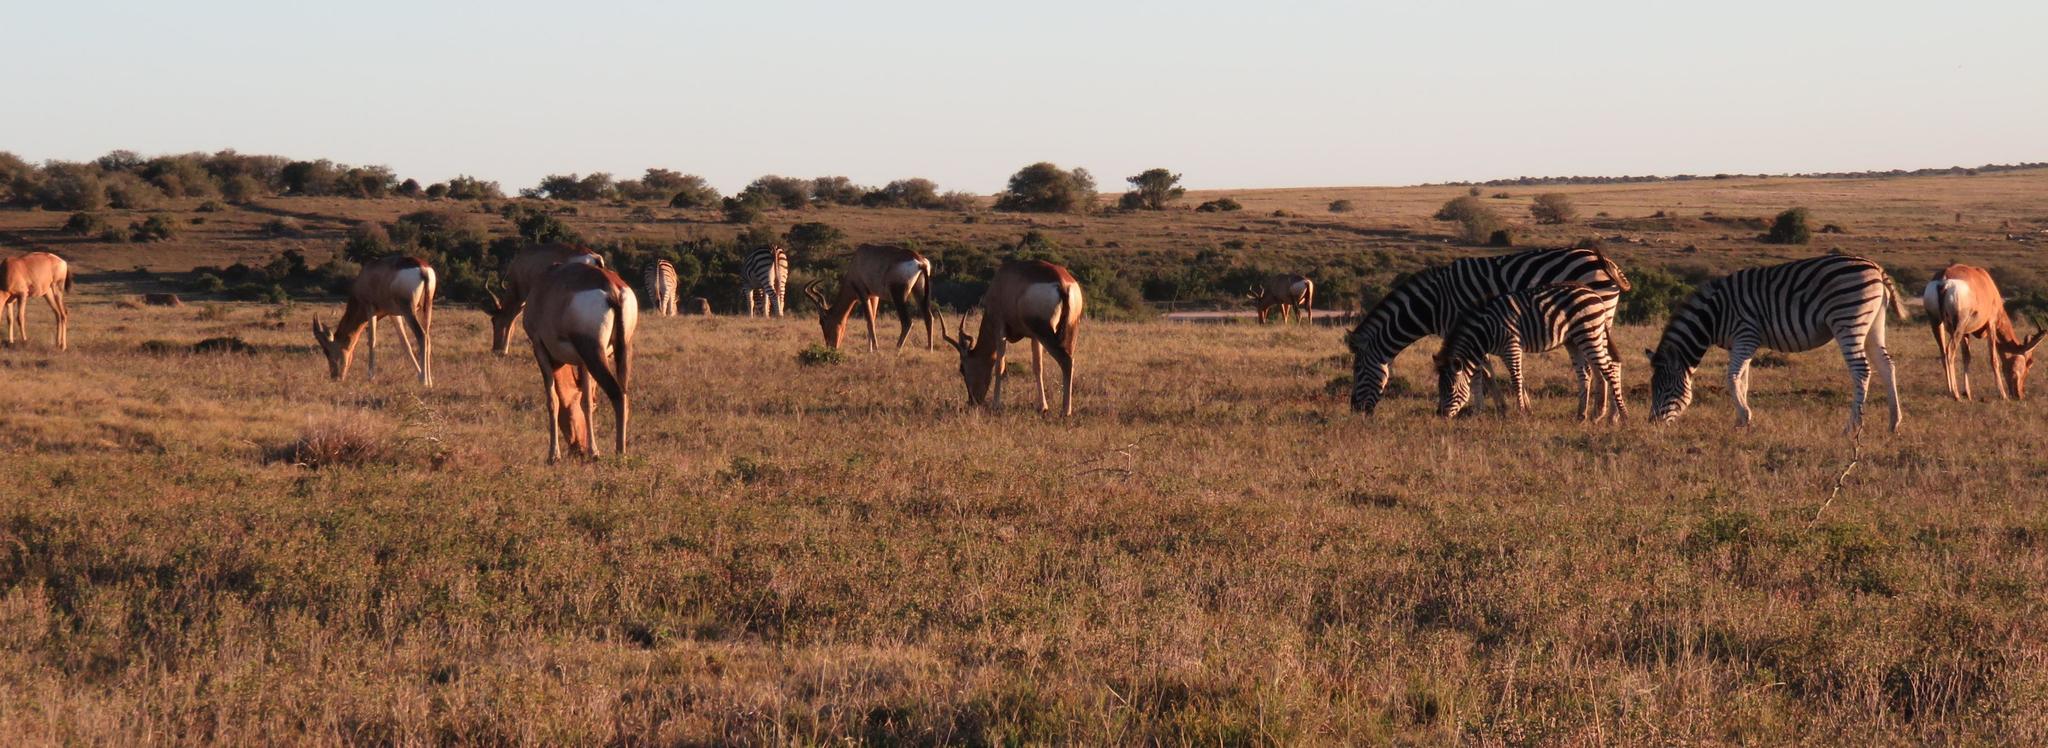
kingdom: Animalia
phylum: Chordata
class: Mammalia
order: Artiodactyla
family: Bovidae
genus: Alcelaphus
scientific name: Alcelaphus caama
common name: Red hartebeest
